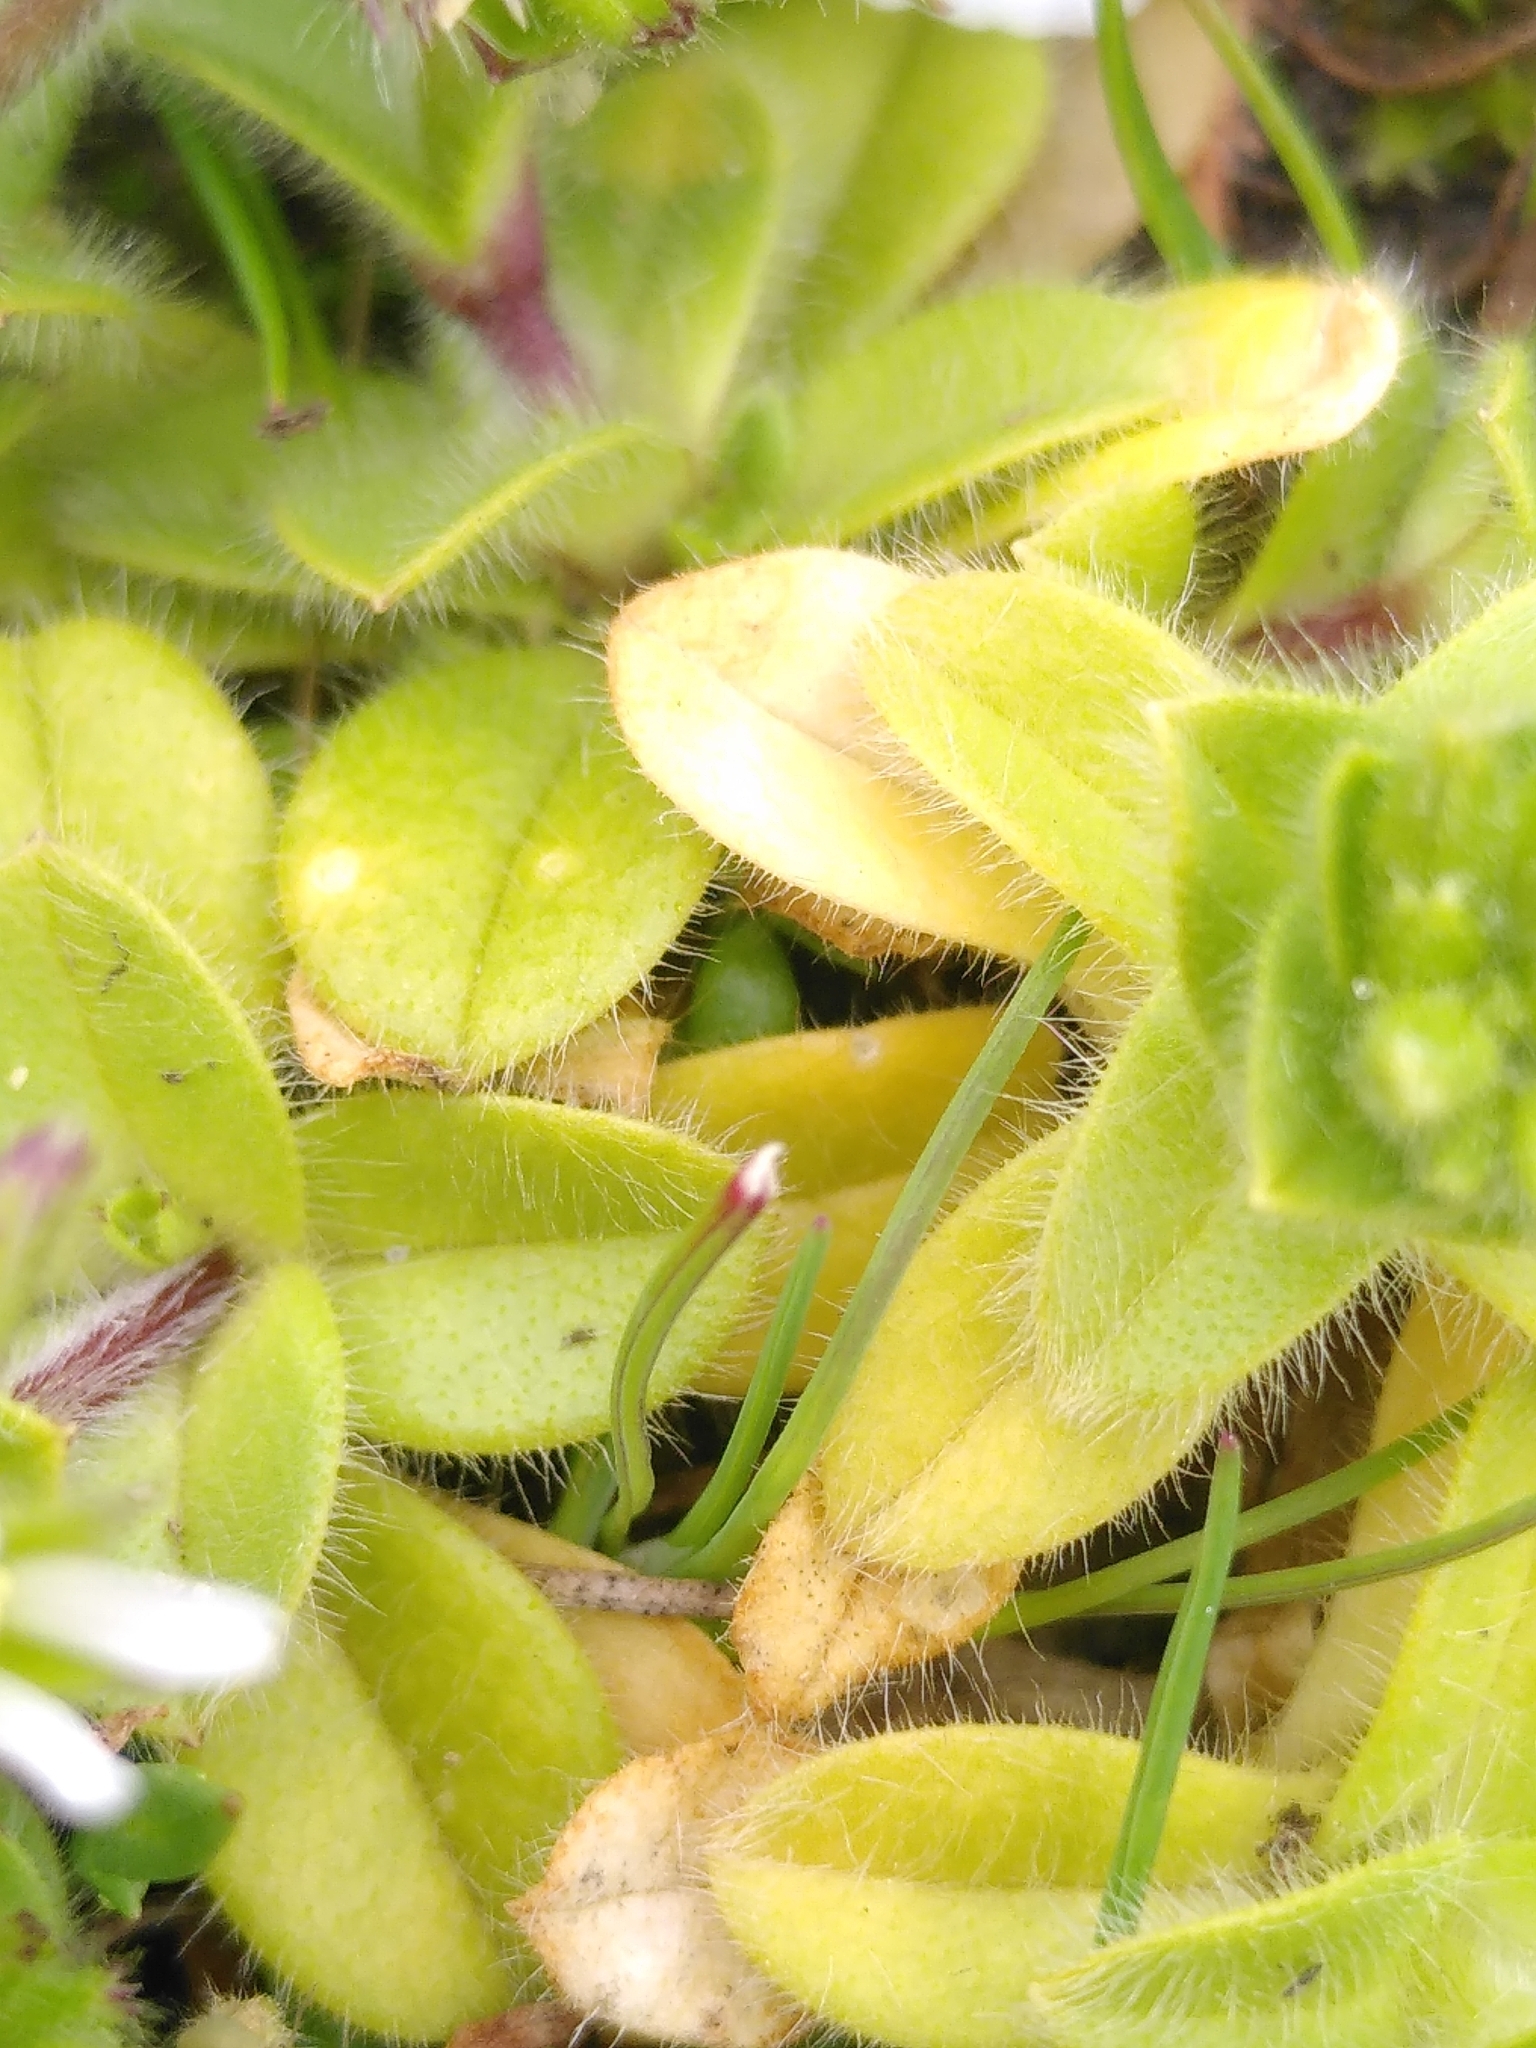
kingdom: Plantae
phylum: Tracheophyta
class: Magnoliopsida
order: Caryophyllales
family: Caryophyllaceae
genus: Cerastium
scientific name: Cerastium glomeratum
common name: Sticky chickweed
